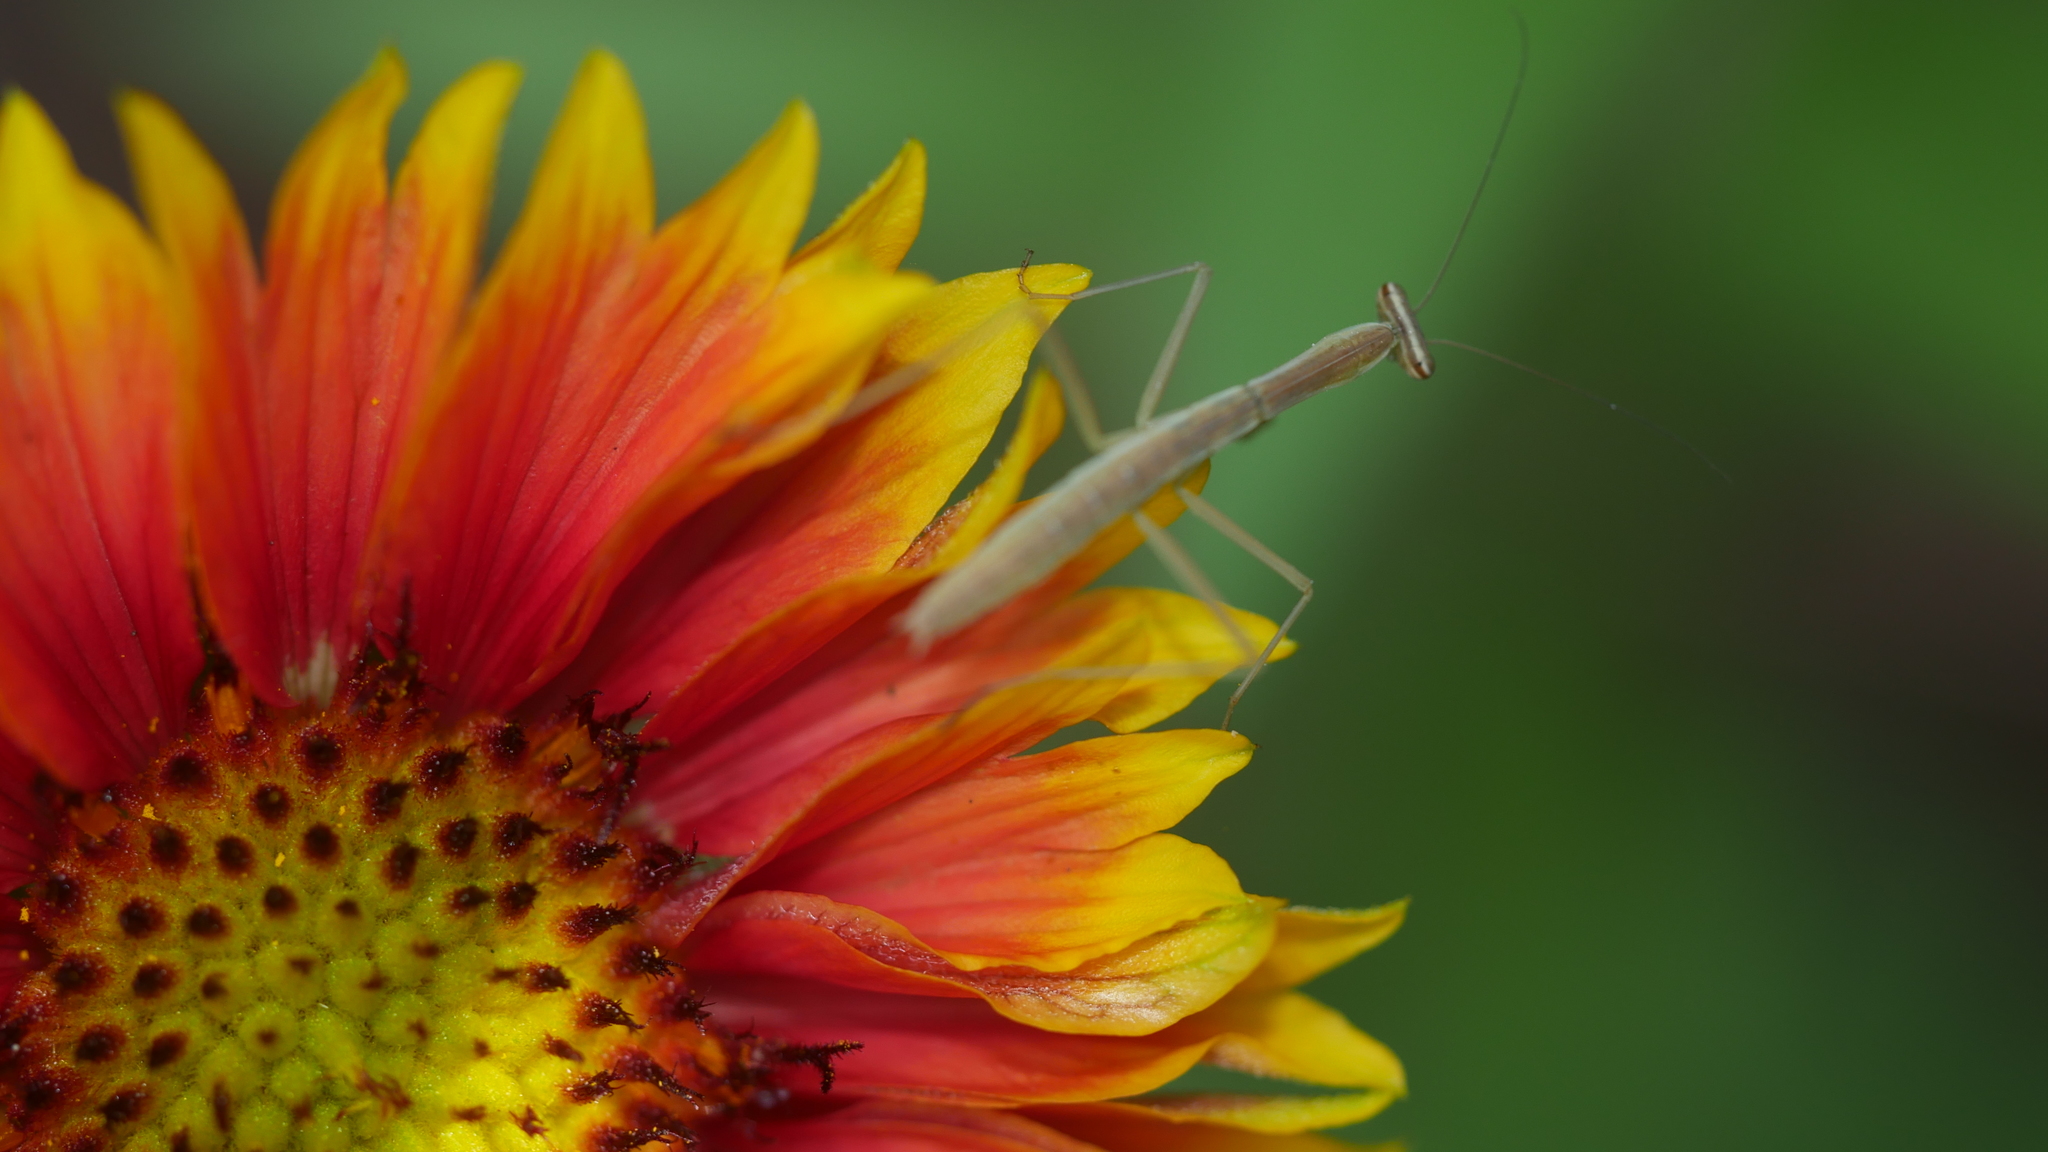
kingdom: Animalia
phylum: Arthropoda
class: Insecta
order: Mantodea
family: Mantidae
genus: Tenodera
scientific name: Tenodera sinensis
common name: Chinese mantis
